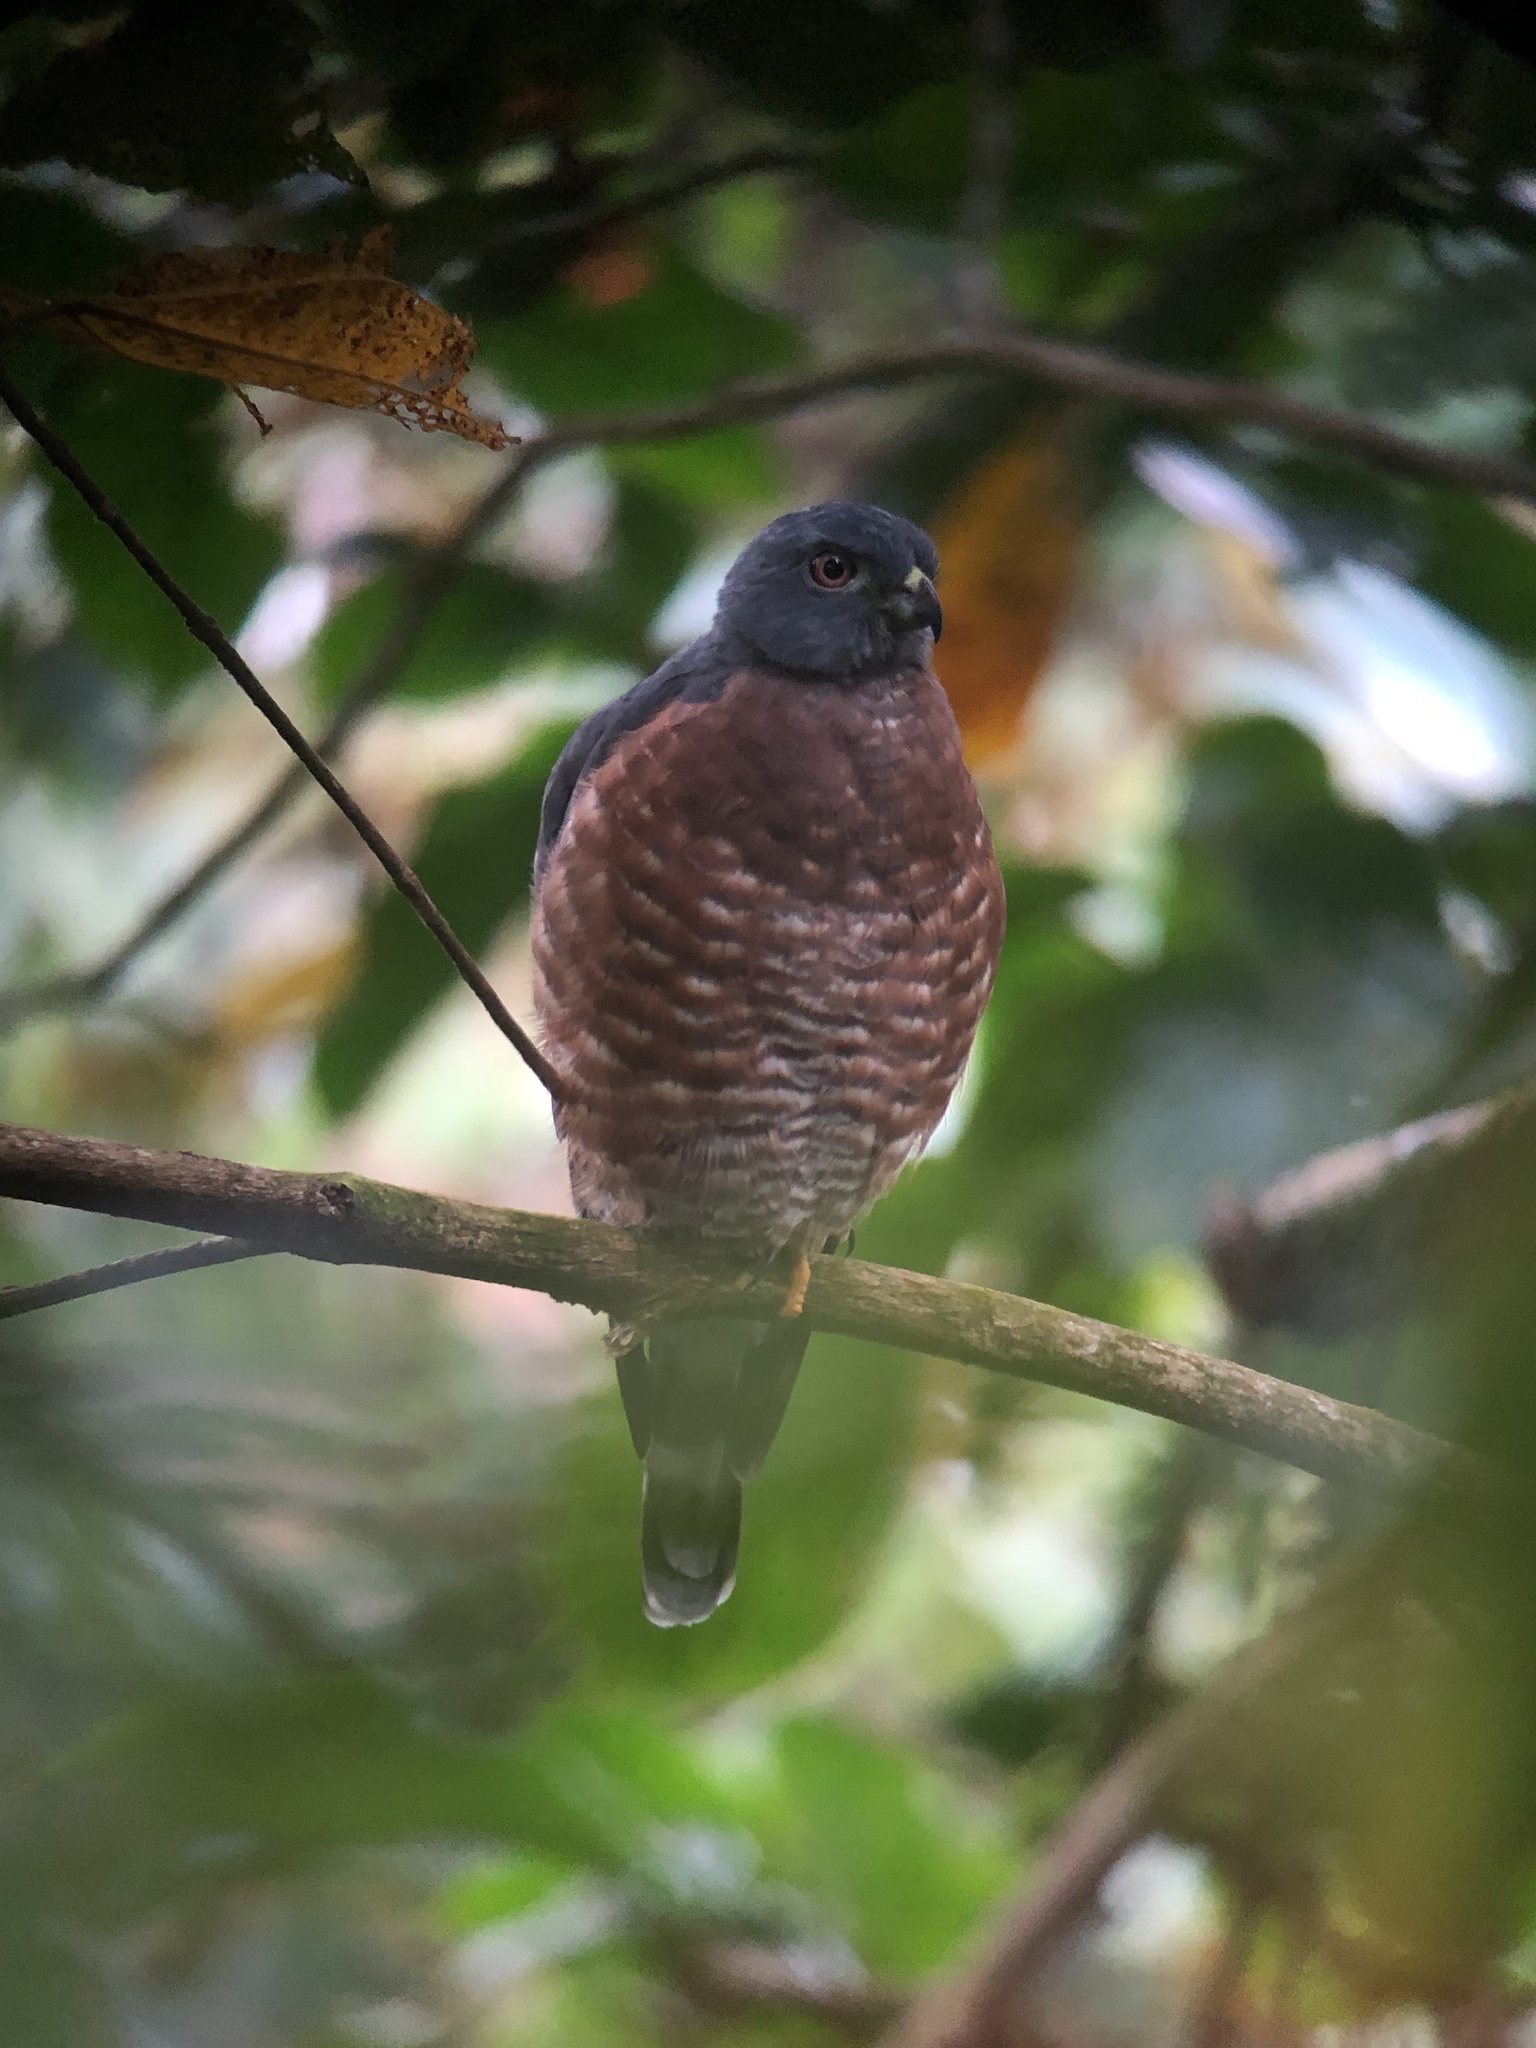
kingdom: Animalia
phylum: Chordata
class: Aves
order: Accipitriformes
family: Accipitridae
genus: Harpagus
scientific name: Harpagus bidentatus
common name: Double-toothed kite
